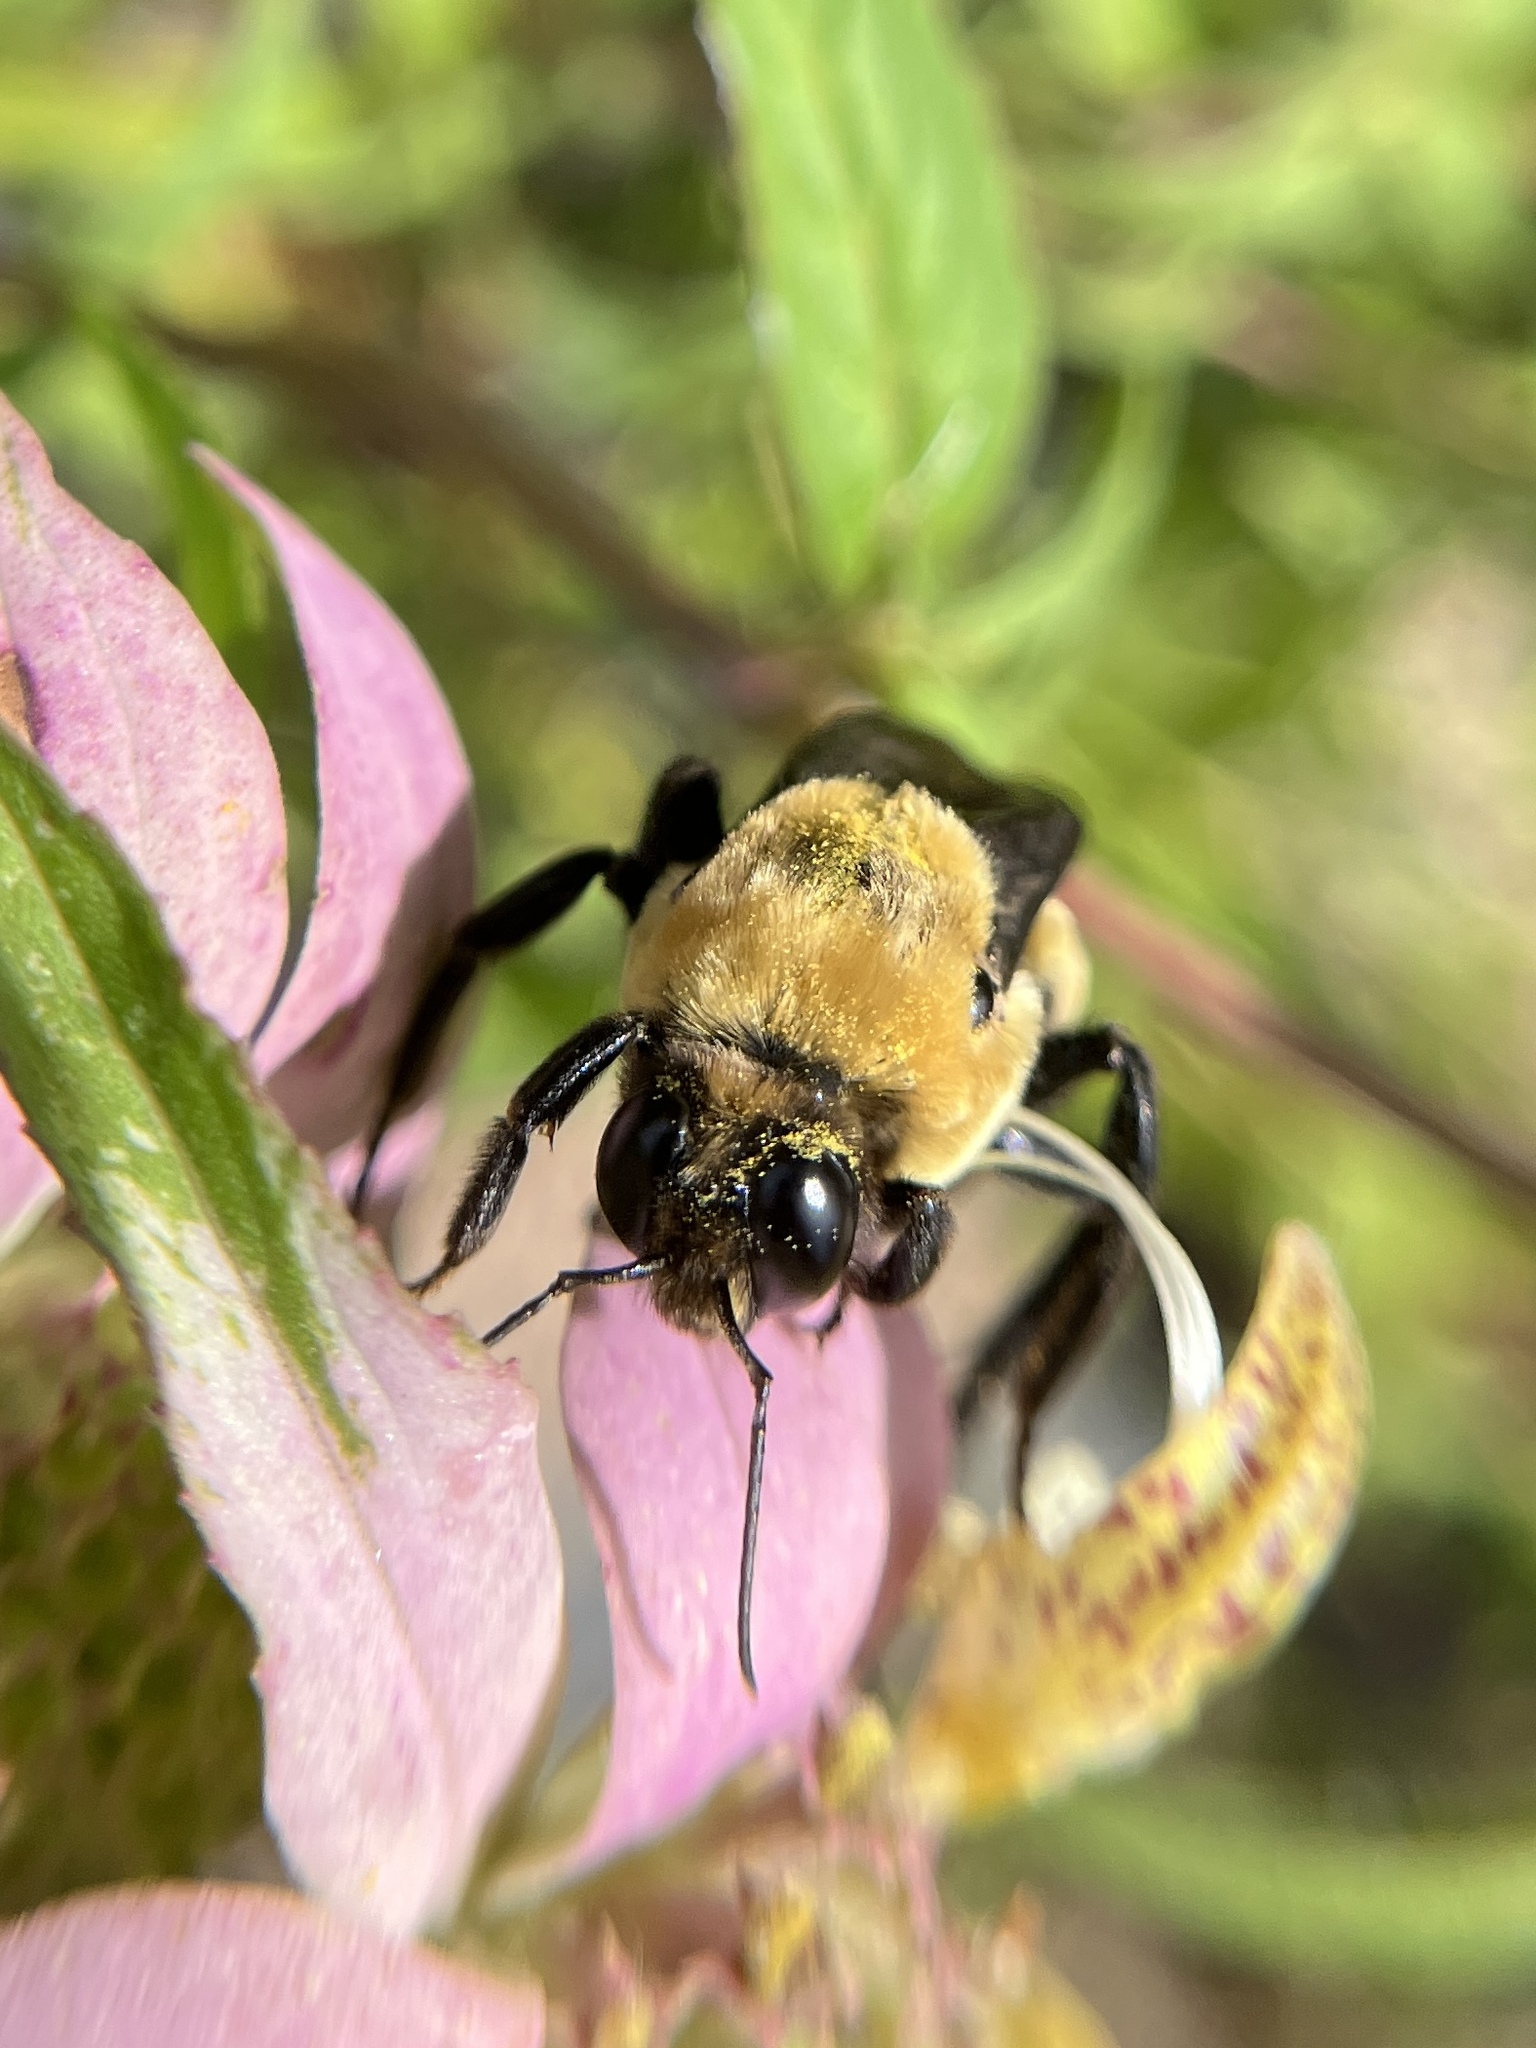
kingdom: Animalia
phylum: Arthropoda
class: Insecta
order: Hymenoptera
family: Apidae
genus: Bombus
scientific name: Bombus fraternus
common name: Southern plains bumble bee
